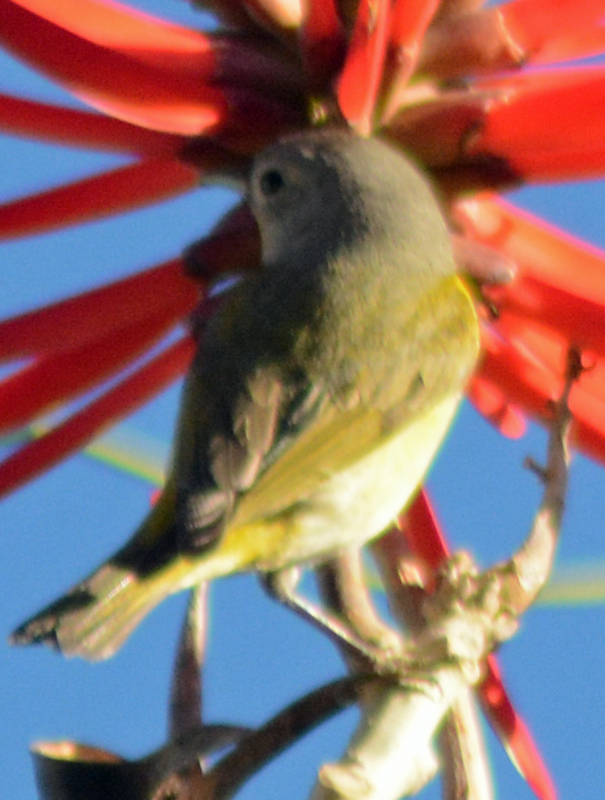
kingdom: Animalia
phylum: Chordata
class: Aves
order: Passeriformes
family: Parulidae
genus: Leiothlypis
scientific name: Leiothlypis ruficapilla
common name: Nashville warbler
